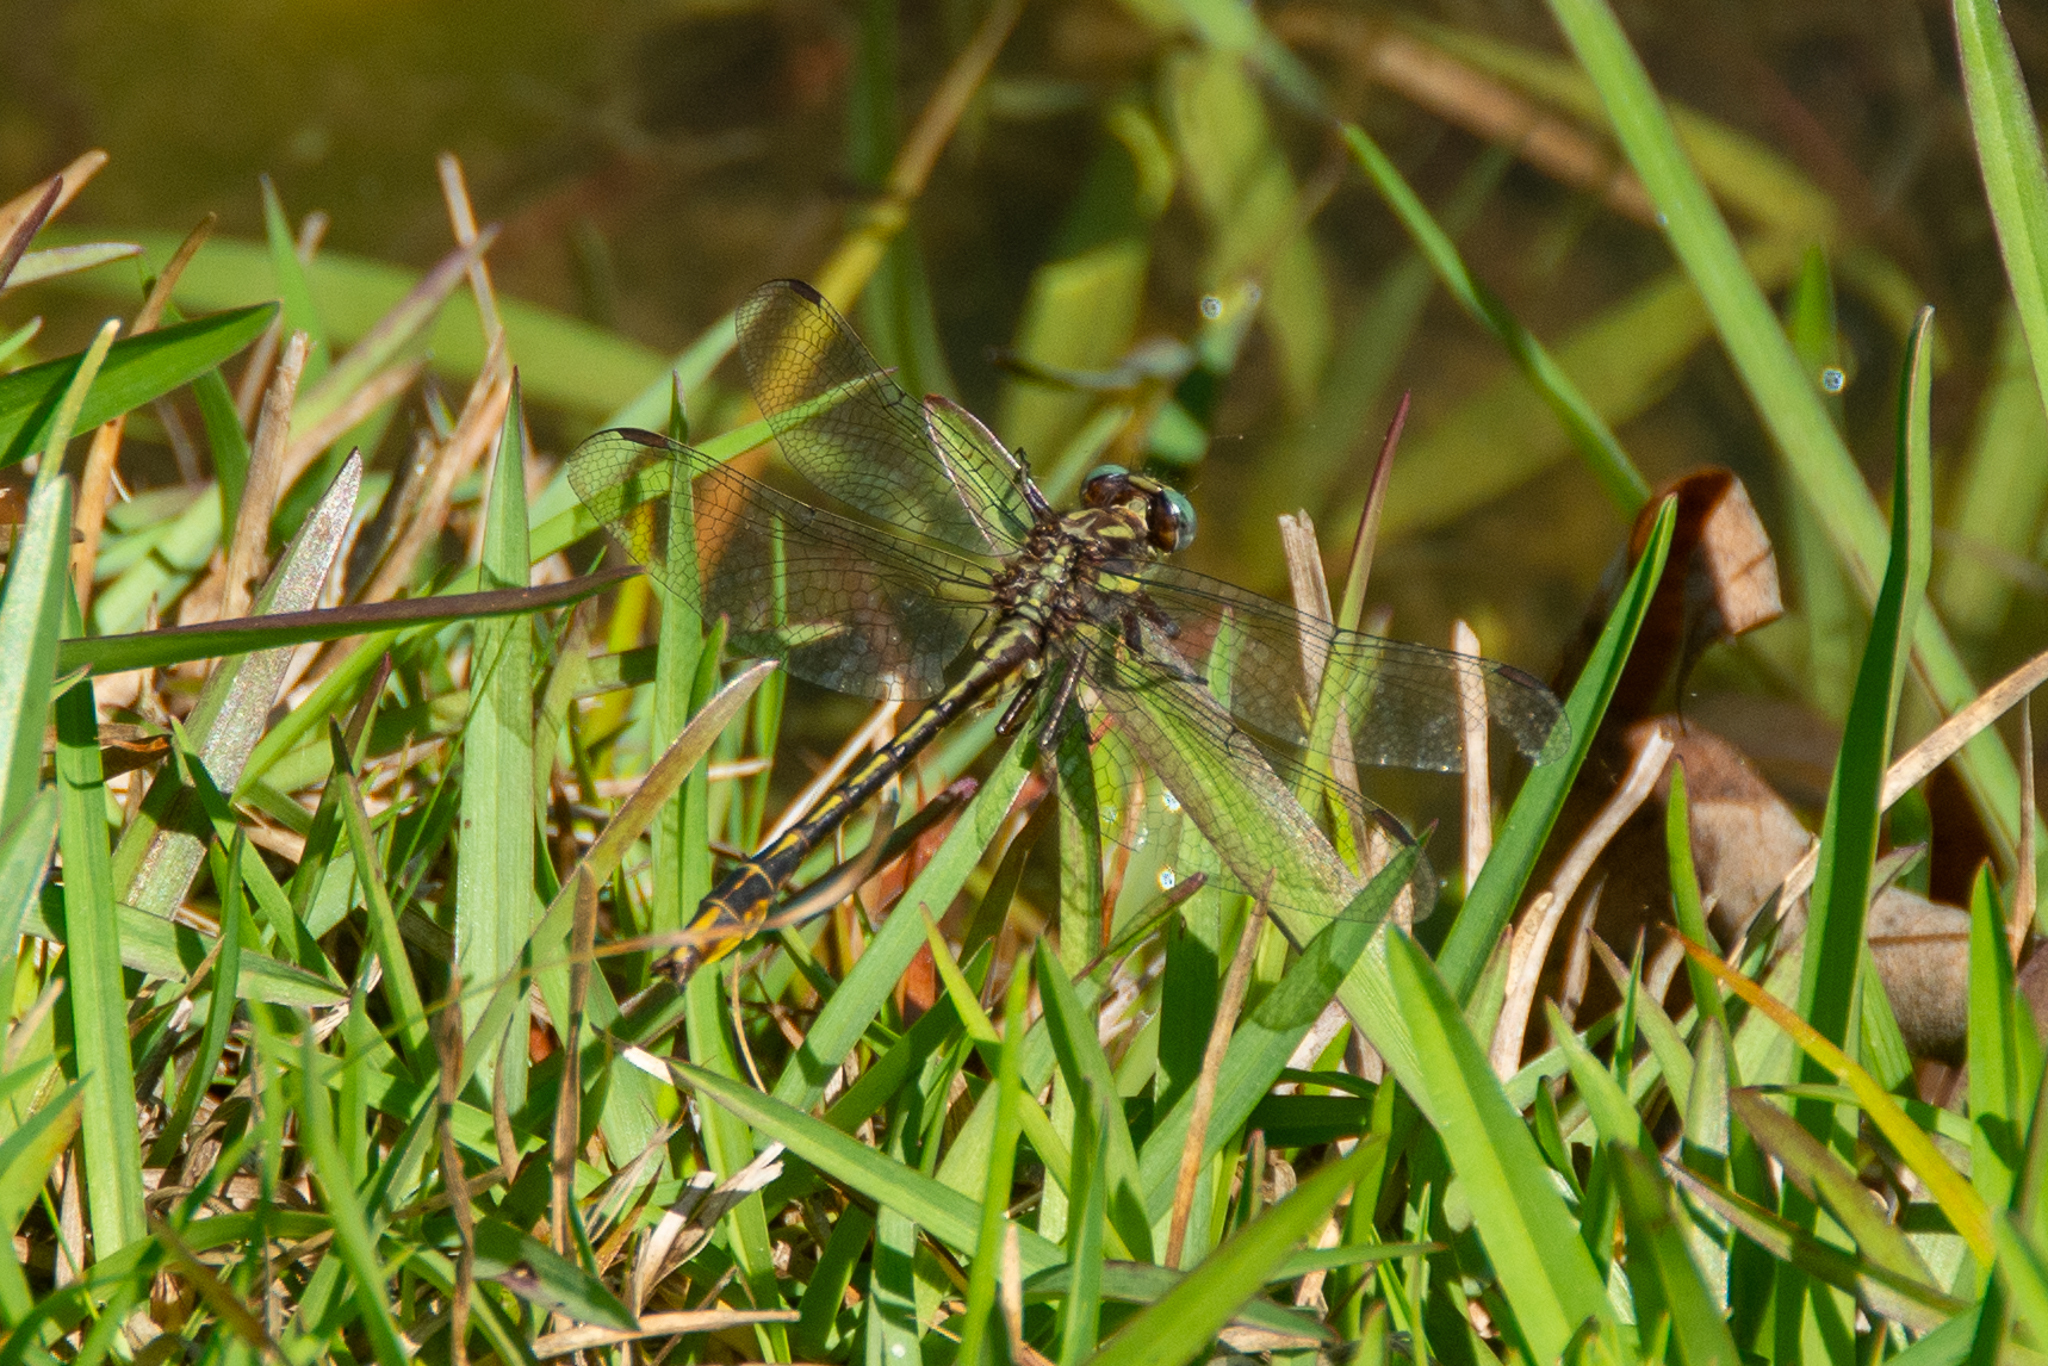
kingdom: Animalia
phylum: Arthropoda
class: Insecta
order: Odonata
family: Gomphidae
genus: Phanogomphus
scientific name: Phanogomphus exilis
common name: Lancet clubtail
